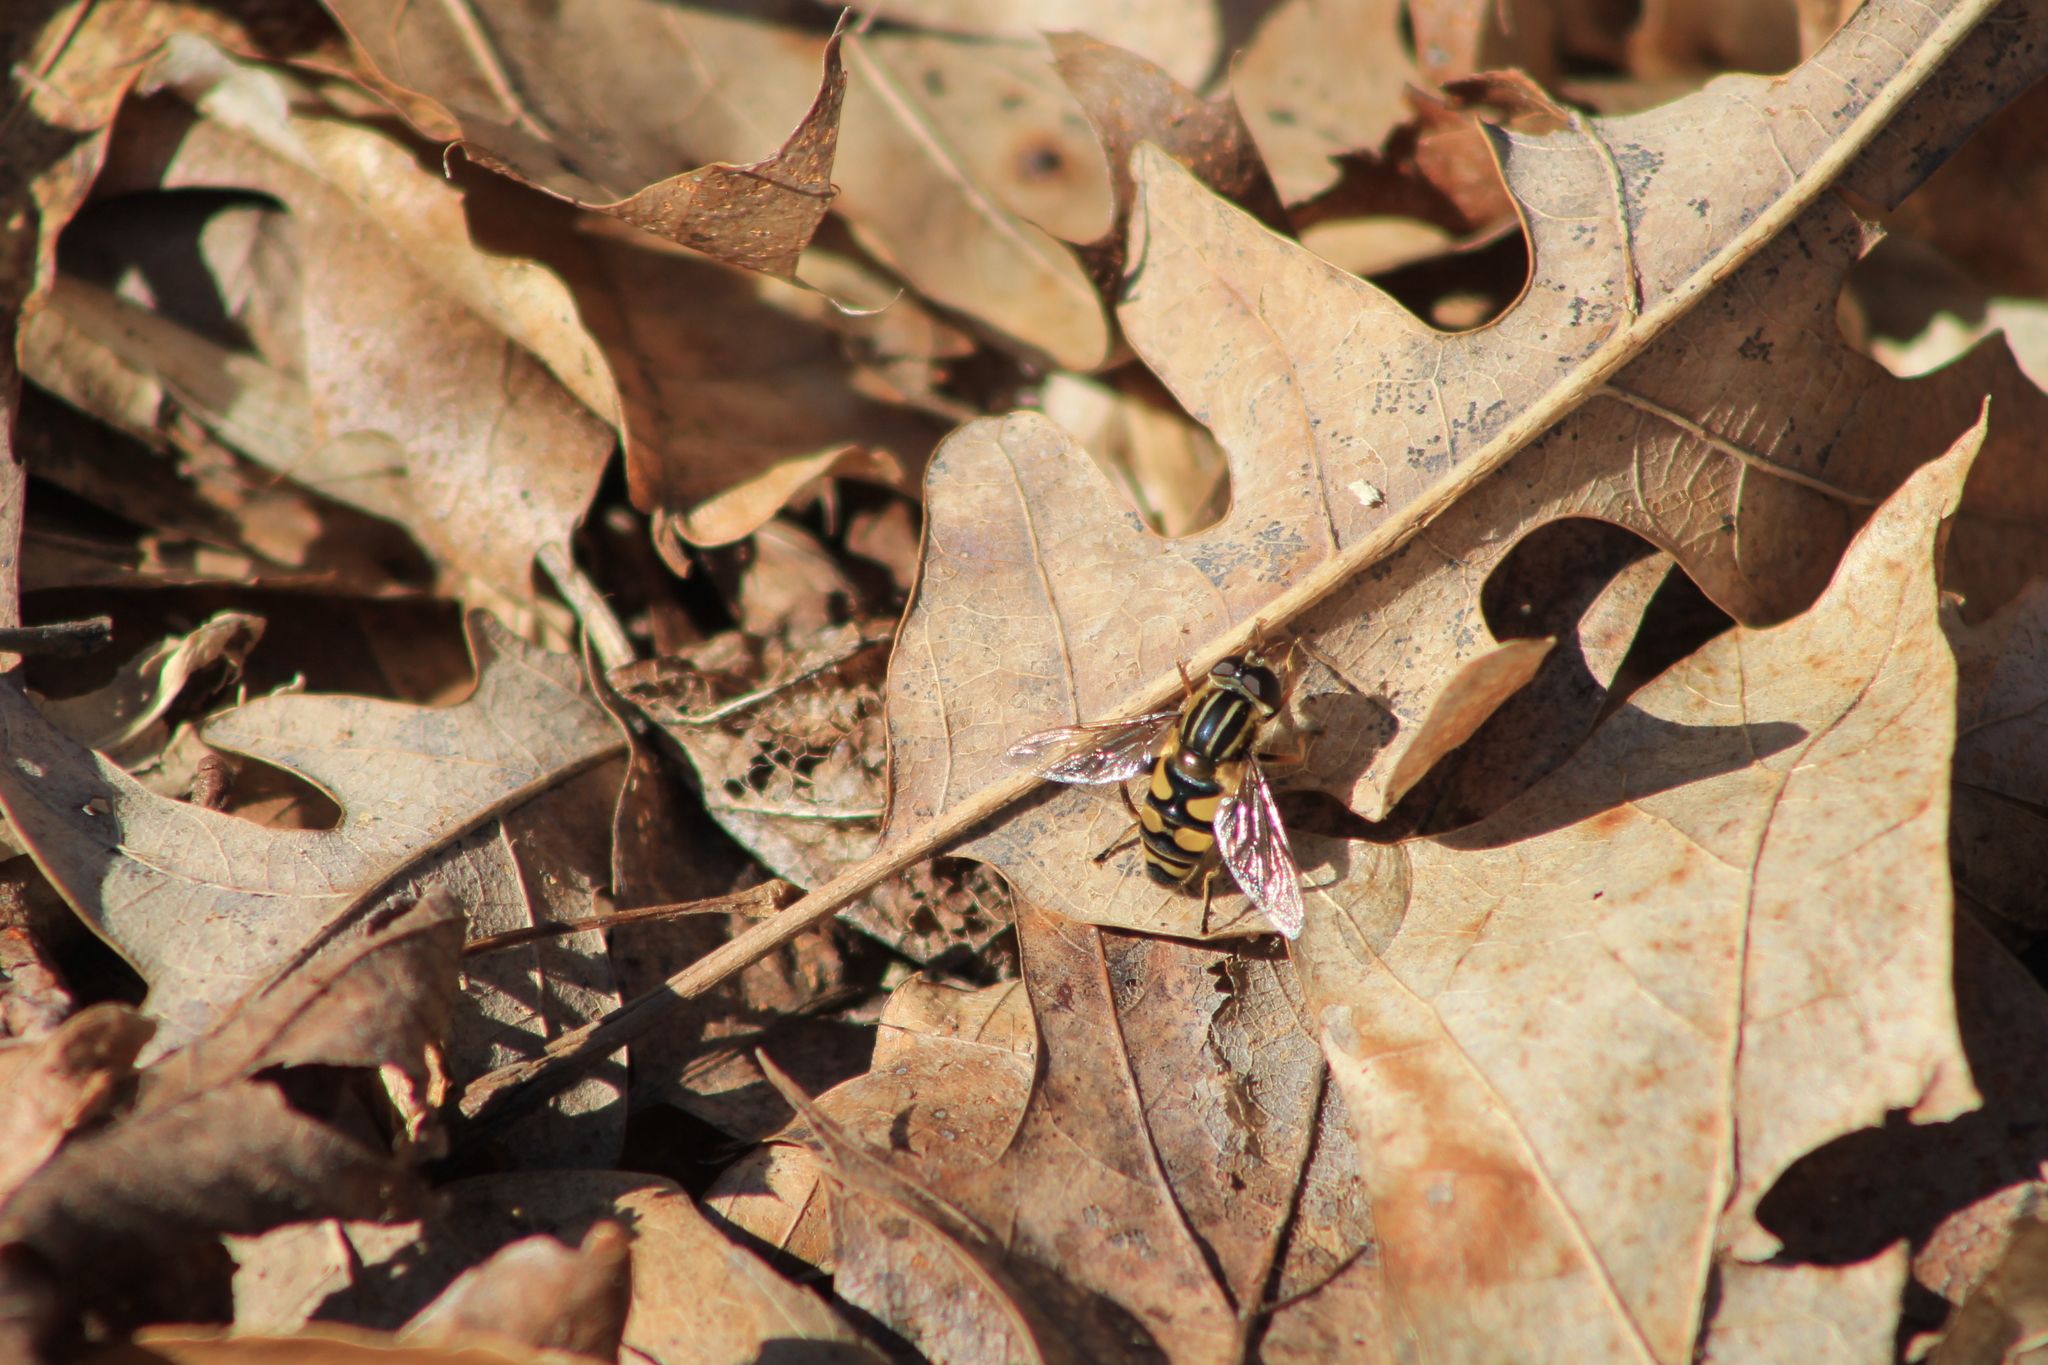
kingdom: Animalia
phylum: Arthropoda
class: Insecta
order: Diptera
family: Syrphidae
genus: Helophilus
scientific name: Helophilus fasciatus
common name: Narrow-headed marsh fly
